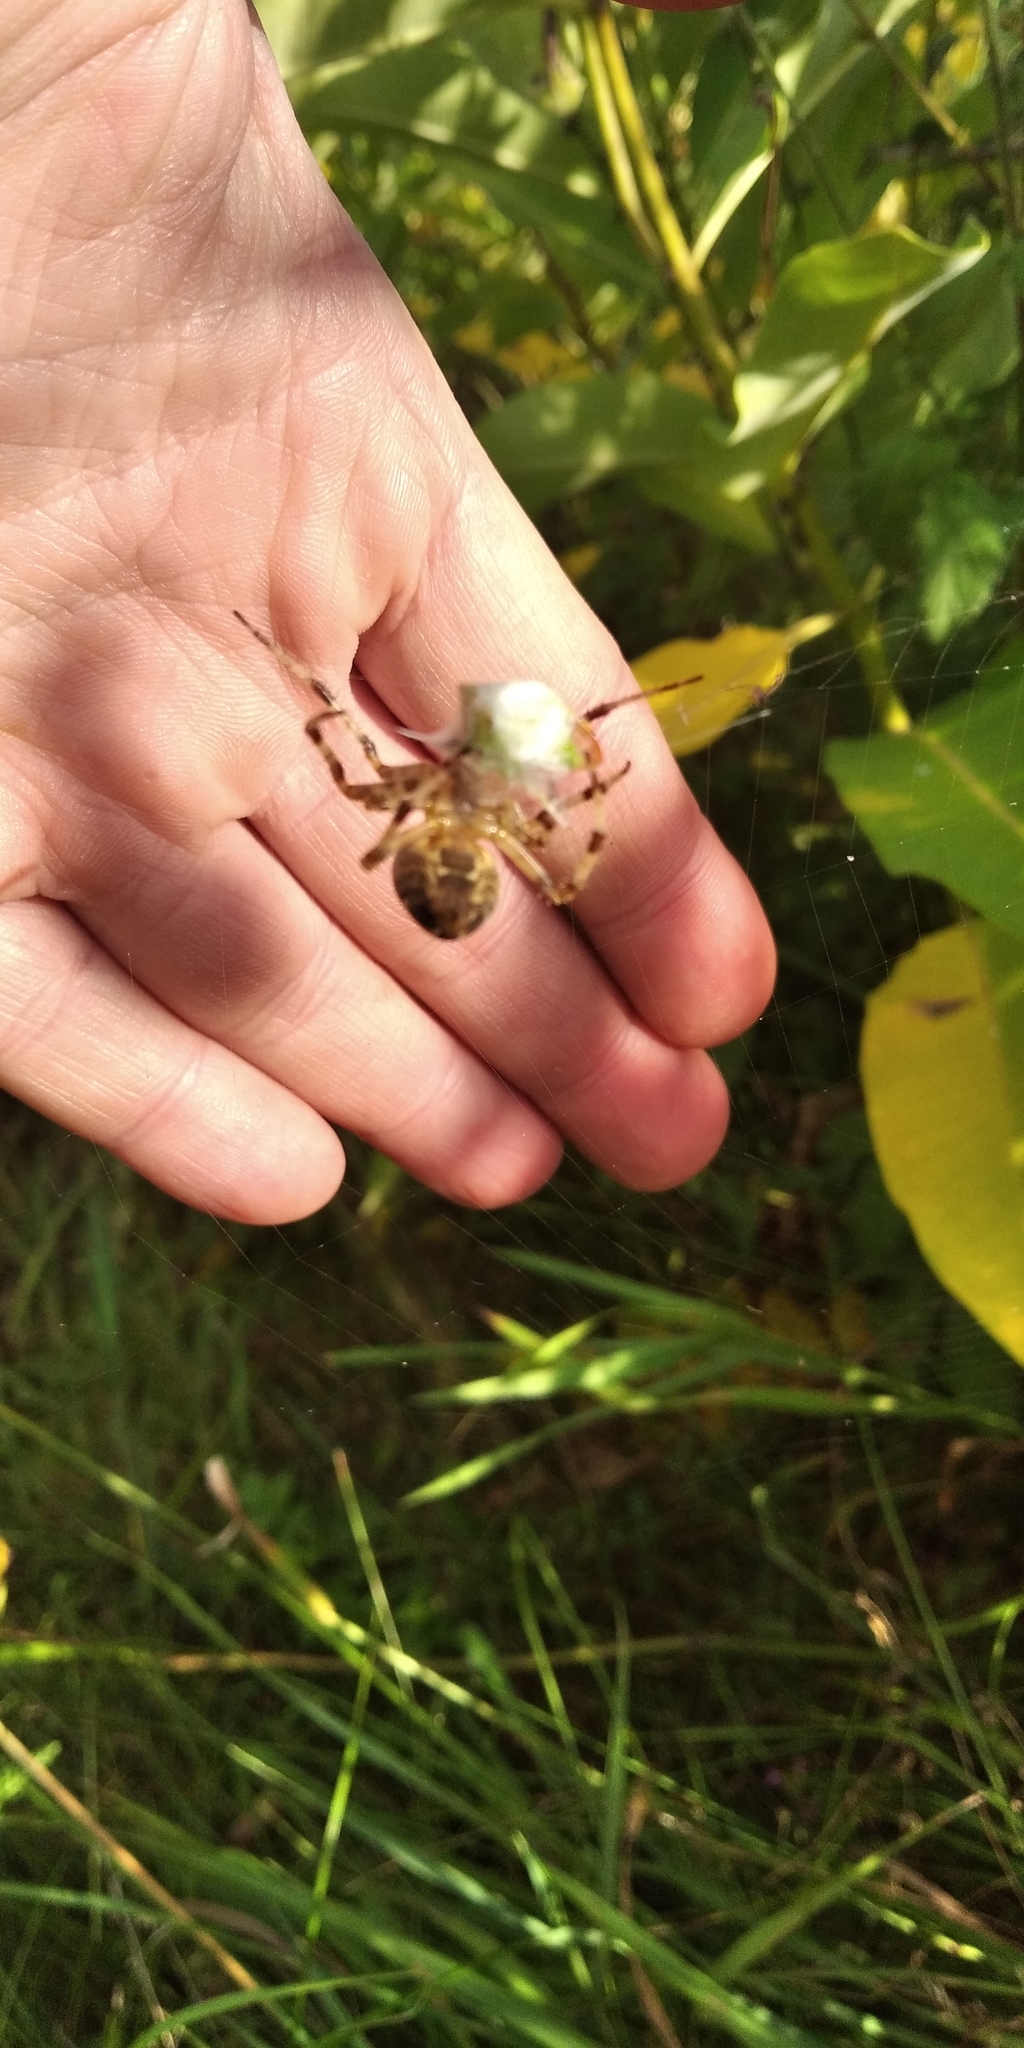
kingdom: Animalia
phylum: Arthropoda
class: Arachnida
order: Araneae
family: Araneidae
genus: Araneus
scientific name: Araneus diadematus
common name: Cross orbweaver
